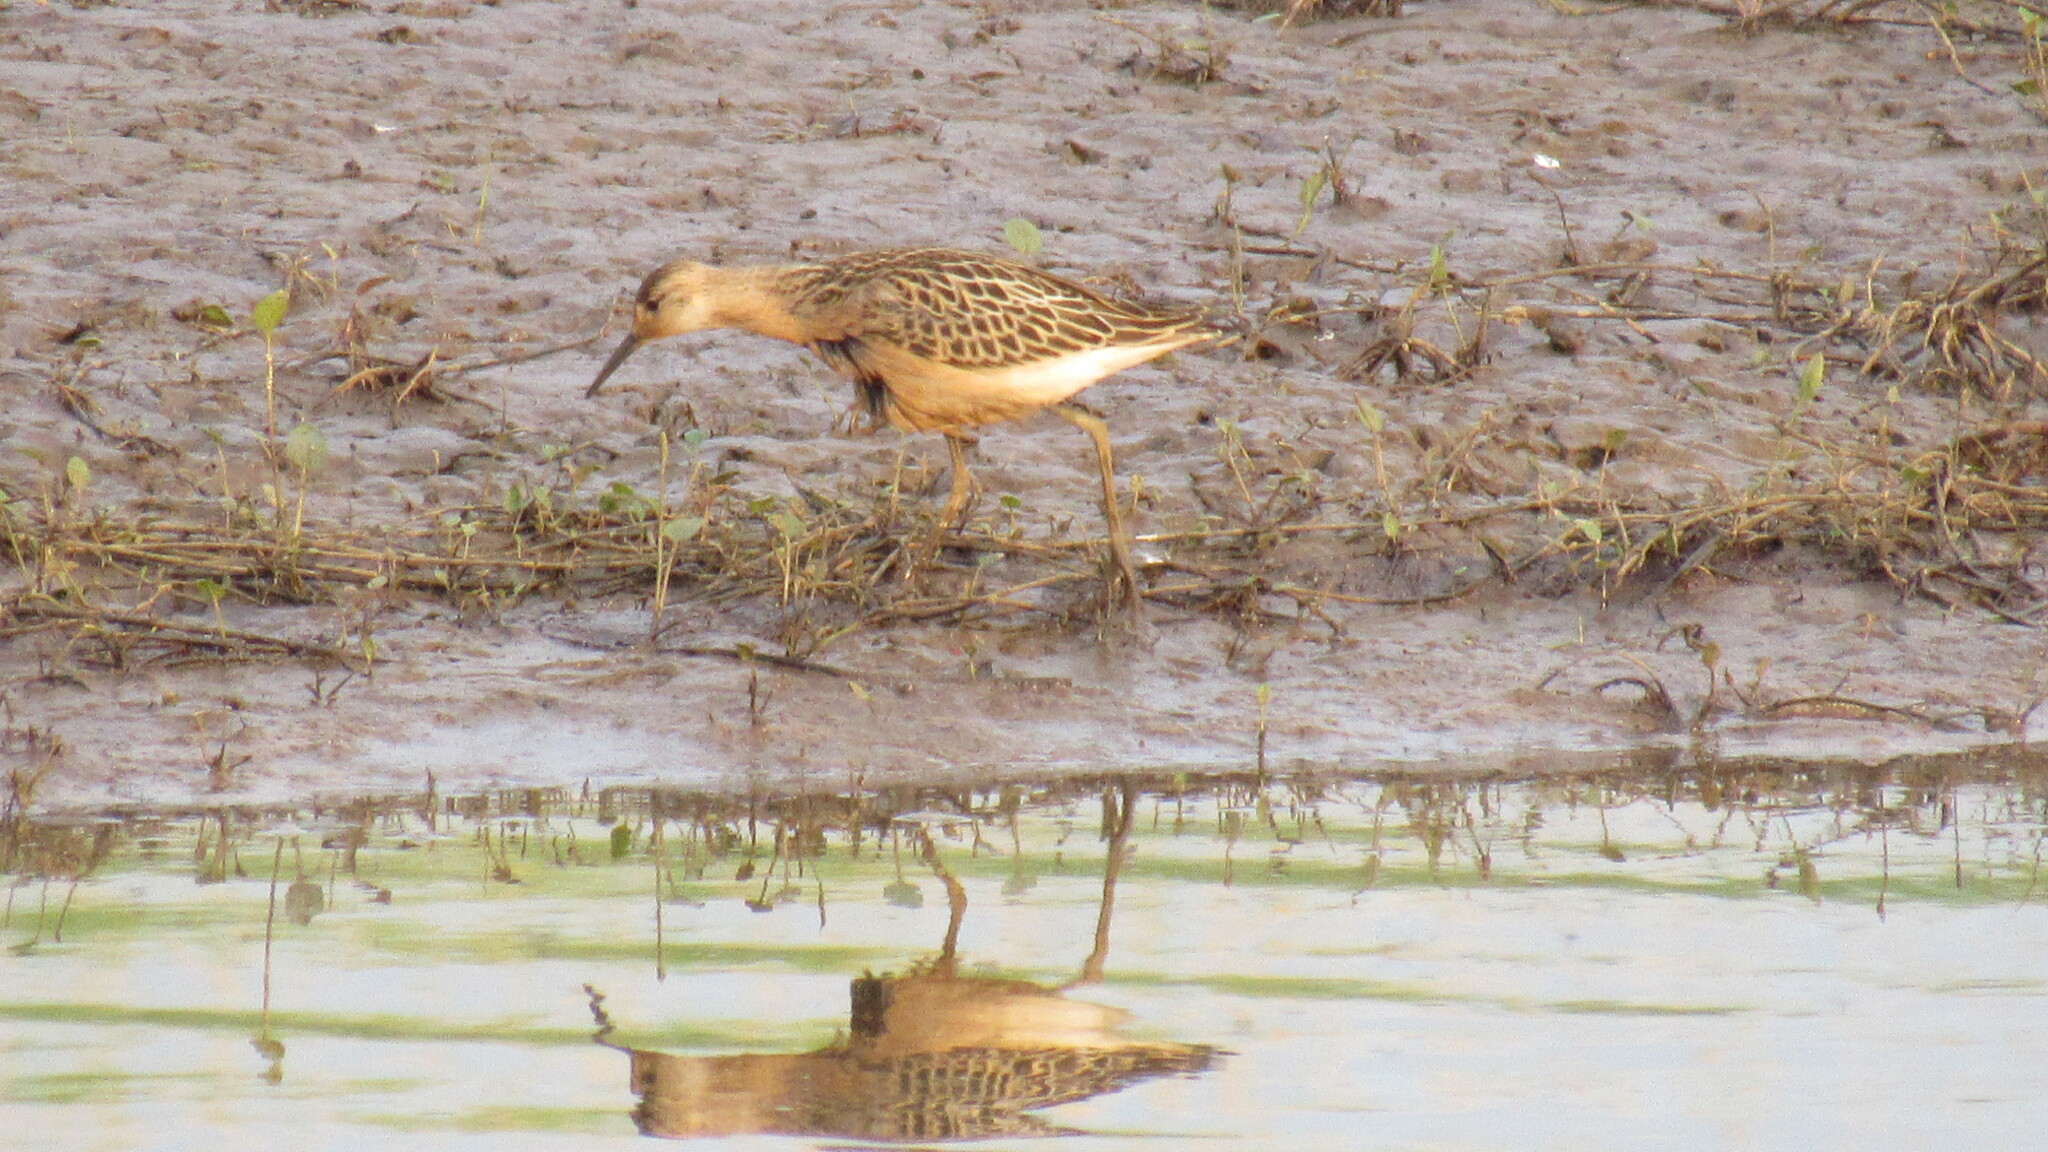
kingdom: Animalia
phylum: Chordata
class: Aves
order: Charadriiformes
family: Scolopacidae
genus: Calidris
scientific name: Calidris pugnax
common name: Ruff
